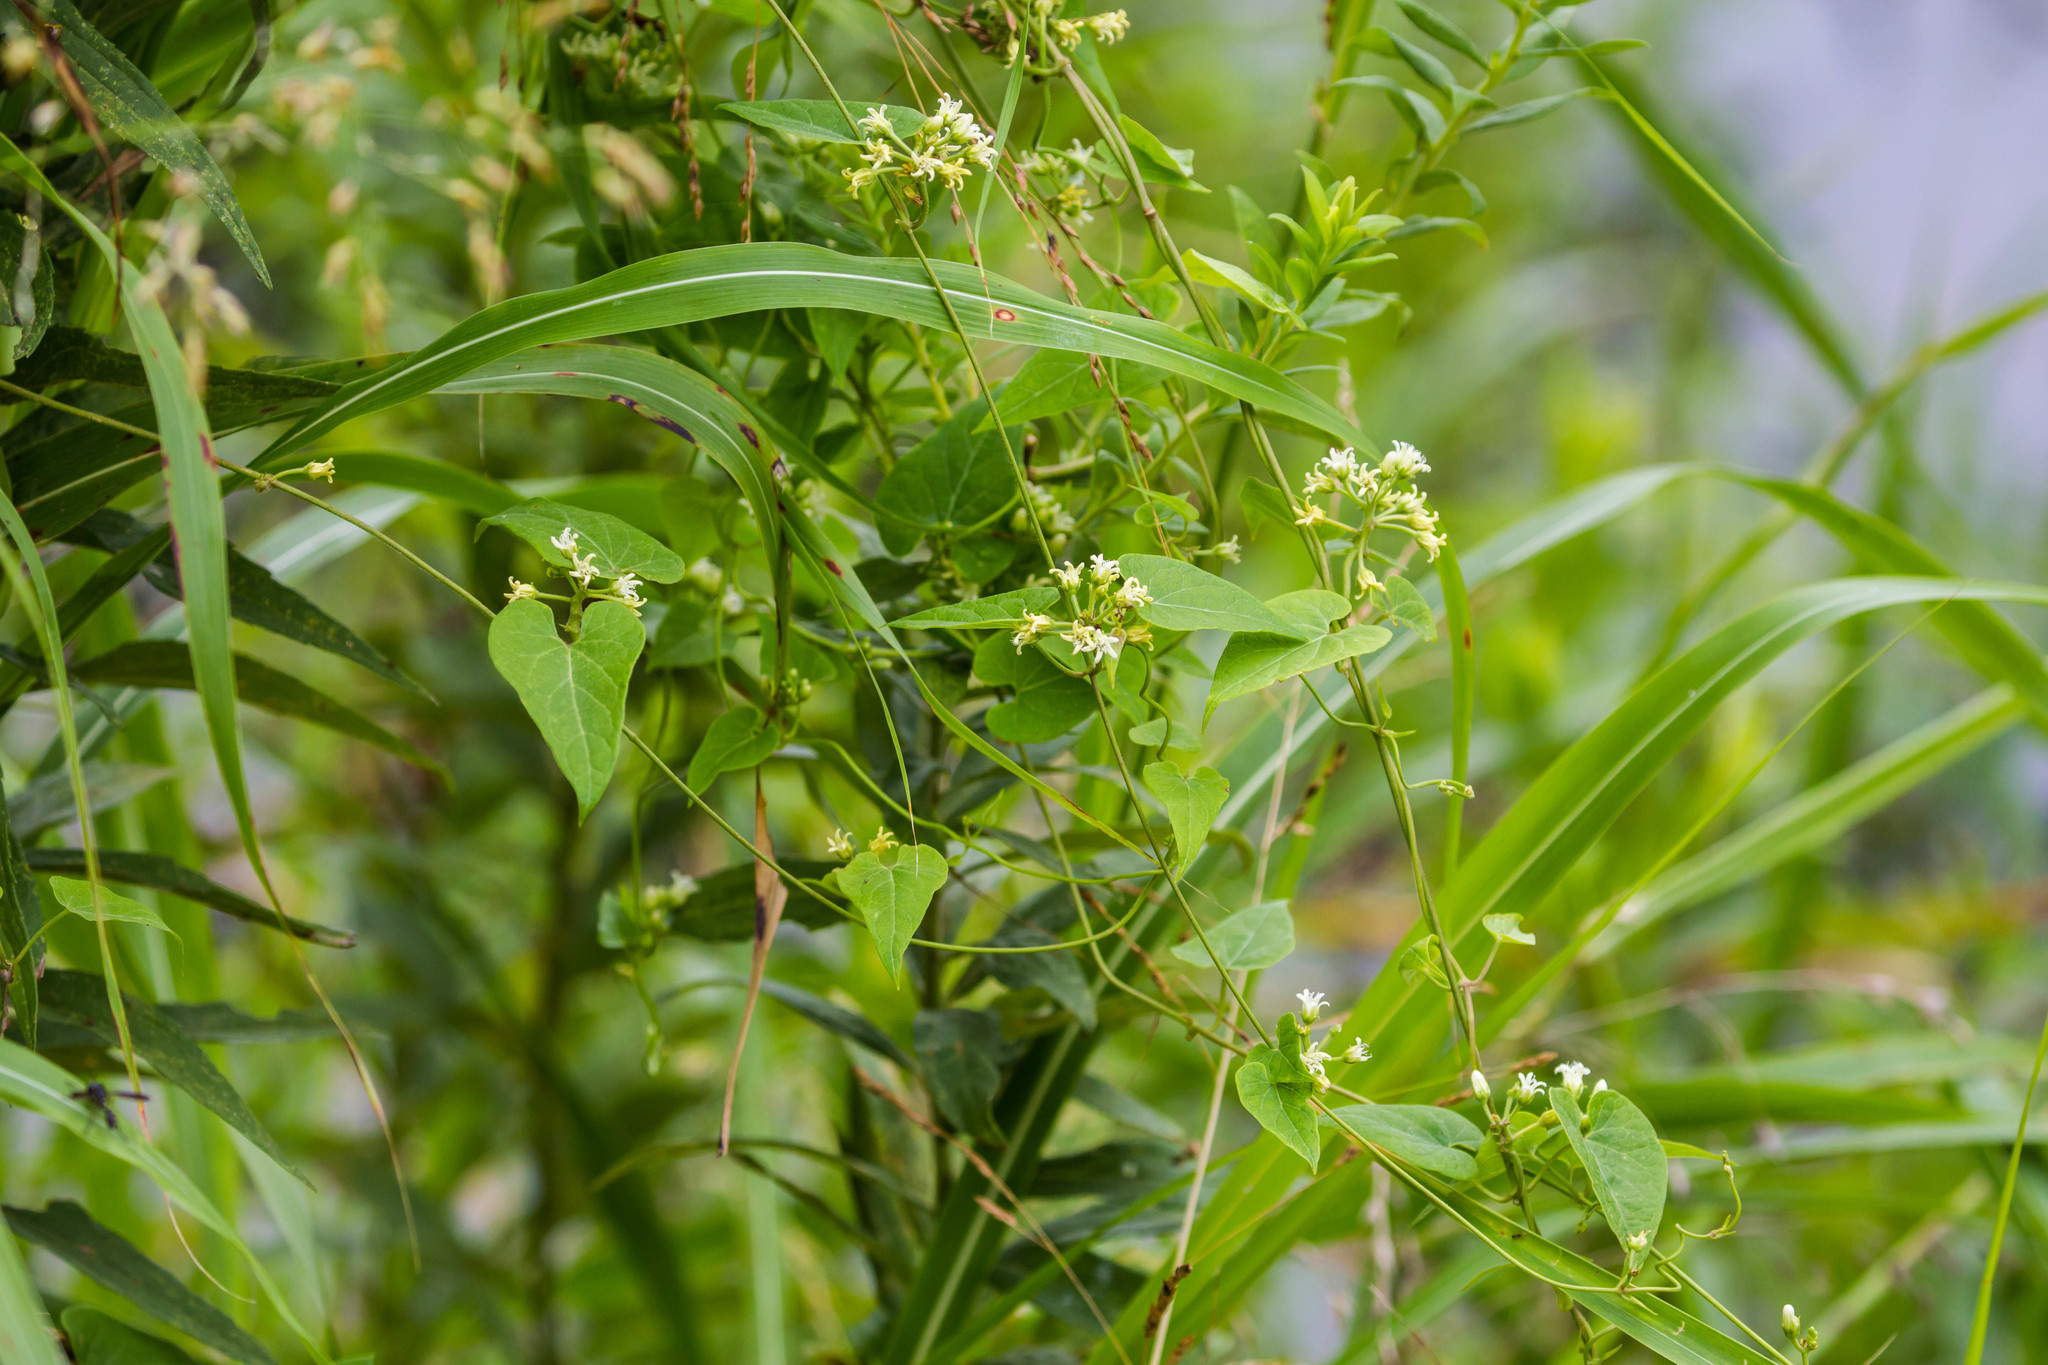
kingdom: Plantae
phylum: Tracheophyta
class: Magnoliopsida
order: Gentianales
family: Apocynaceae
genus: Cynanchum
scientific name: Cynanchum laeve
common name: Sandvine
